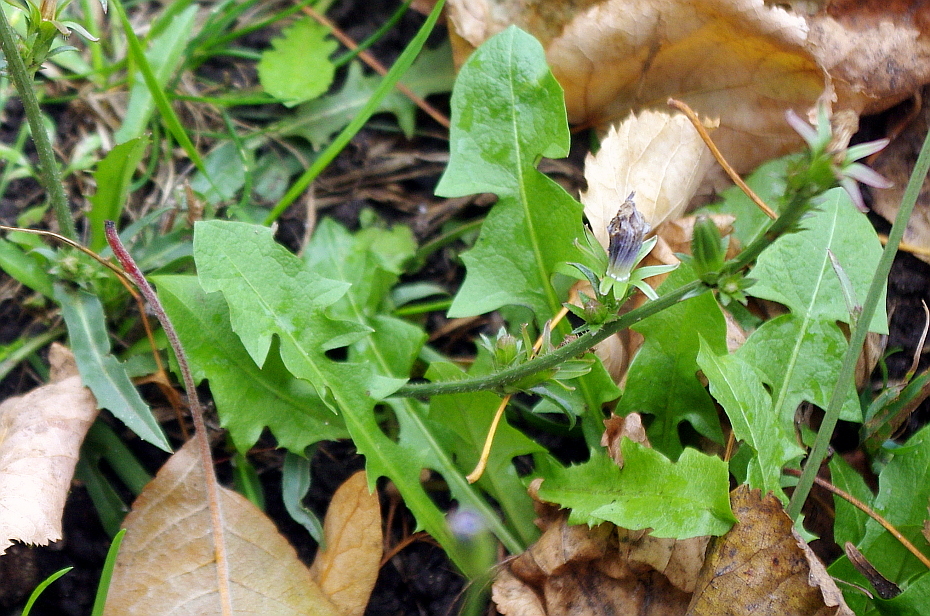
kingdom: Plantae
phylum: Tracheophyta
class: Magnoliopsida
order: Asterales
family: Asteraceae
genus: Taraxacum
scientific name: Taraxacum officinale
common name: Common dandelion
